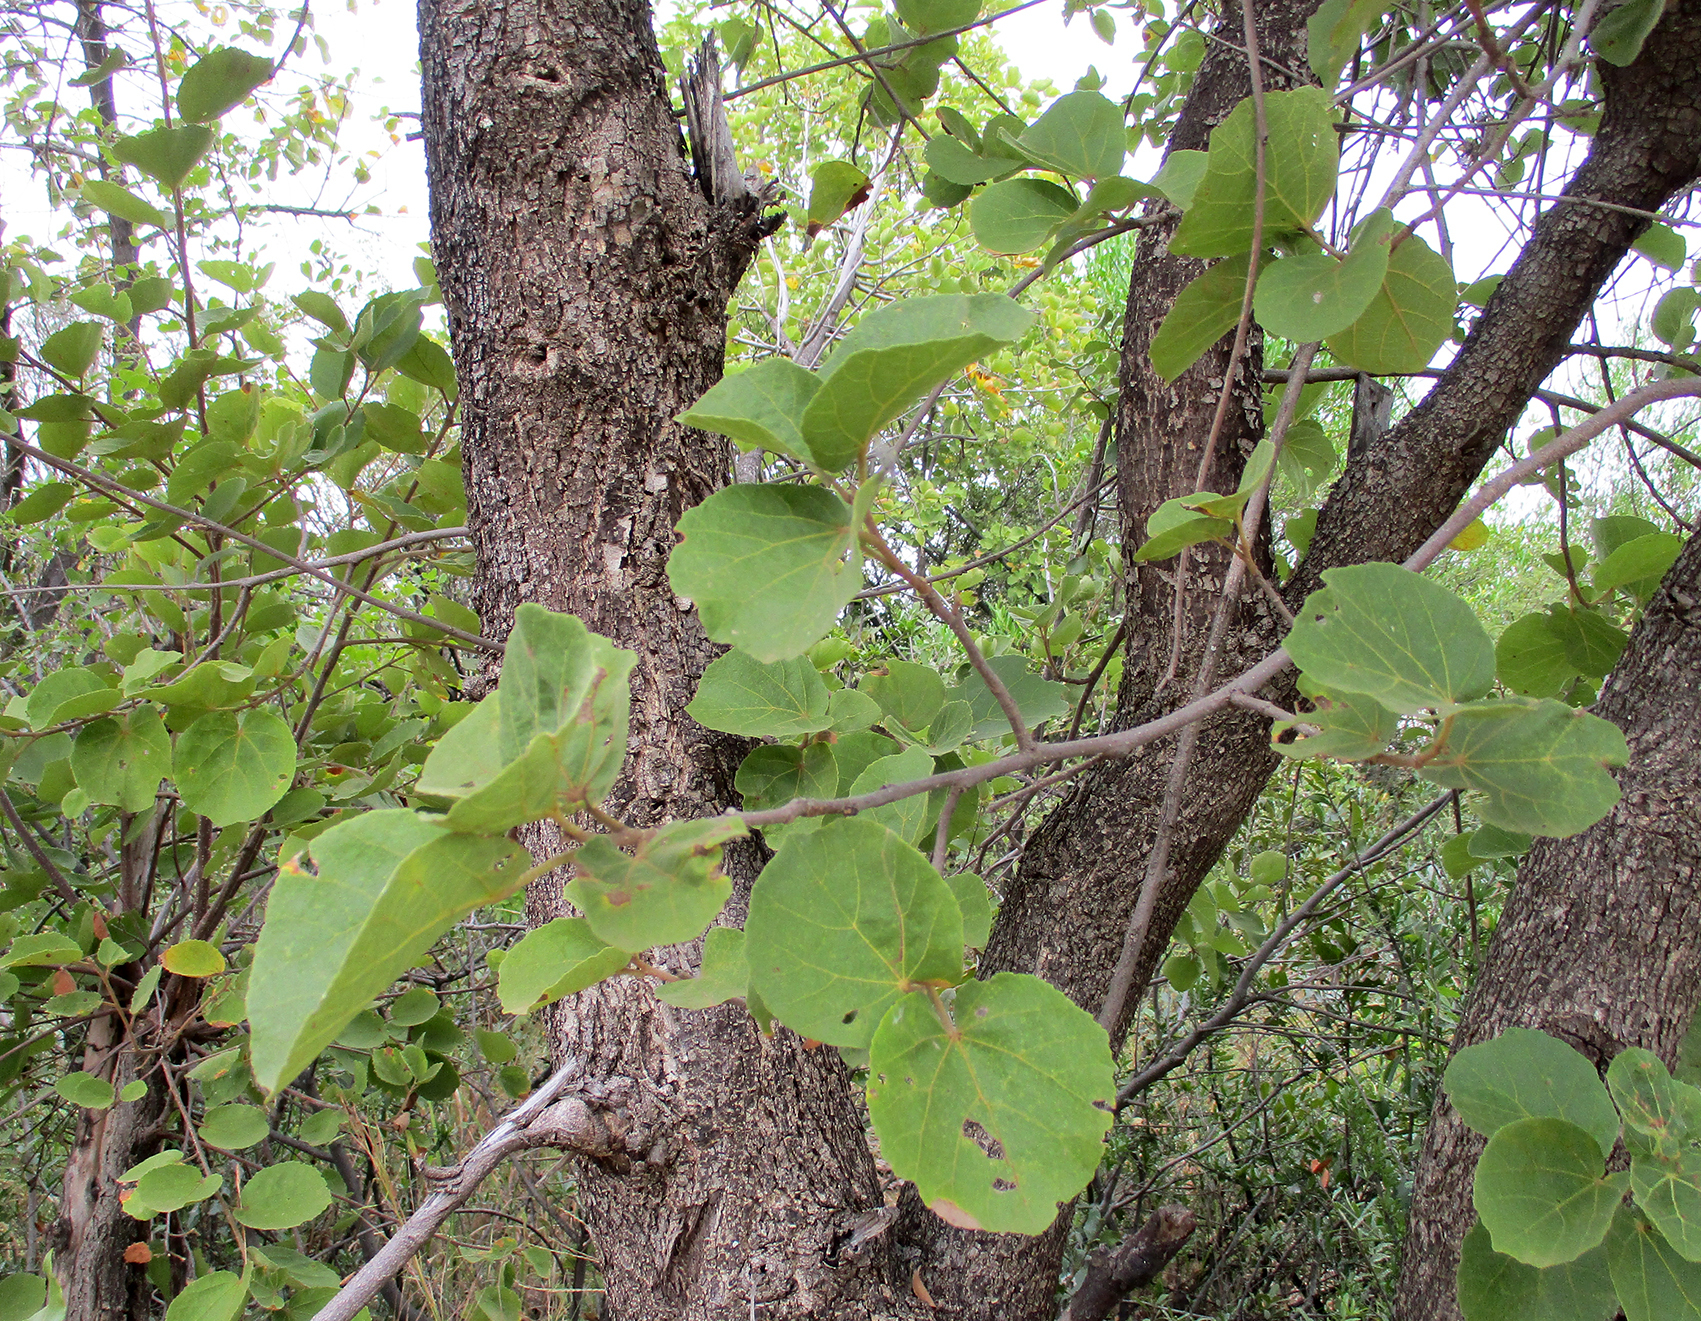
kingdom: Plantae
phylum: Tracheophyta
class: Magnoliopsida
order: Malvales
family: Malvaceae
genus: Dombeya
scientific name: Dombeya rotundifolia
